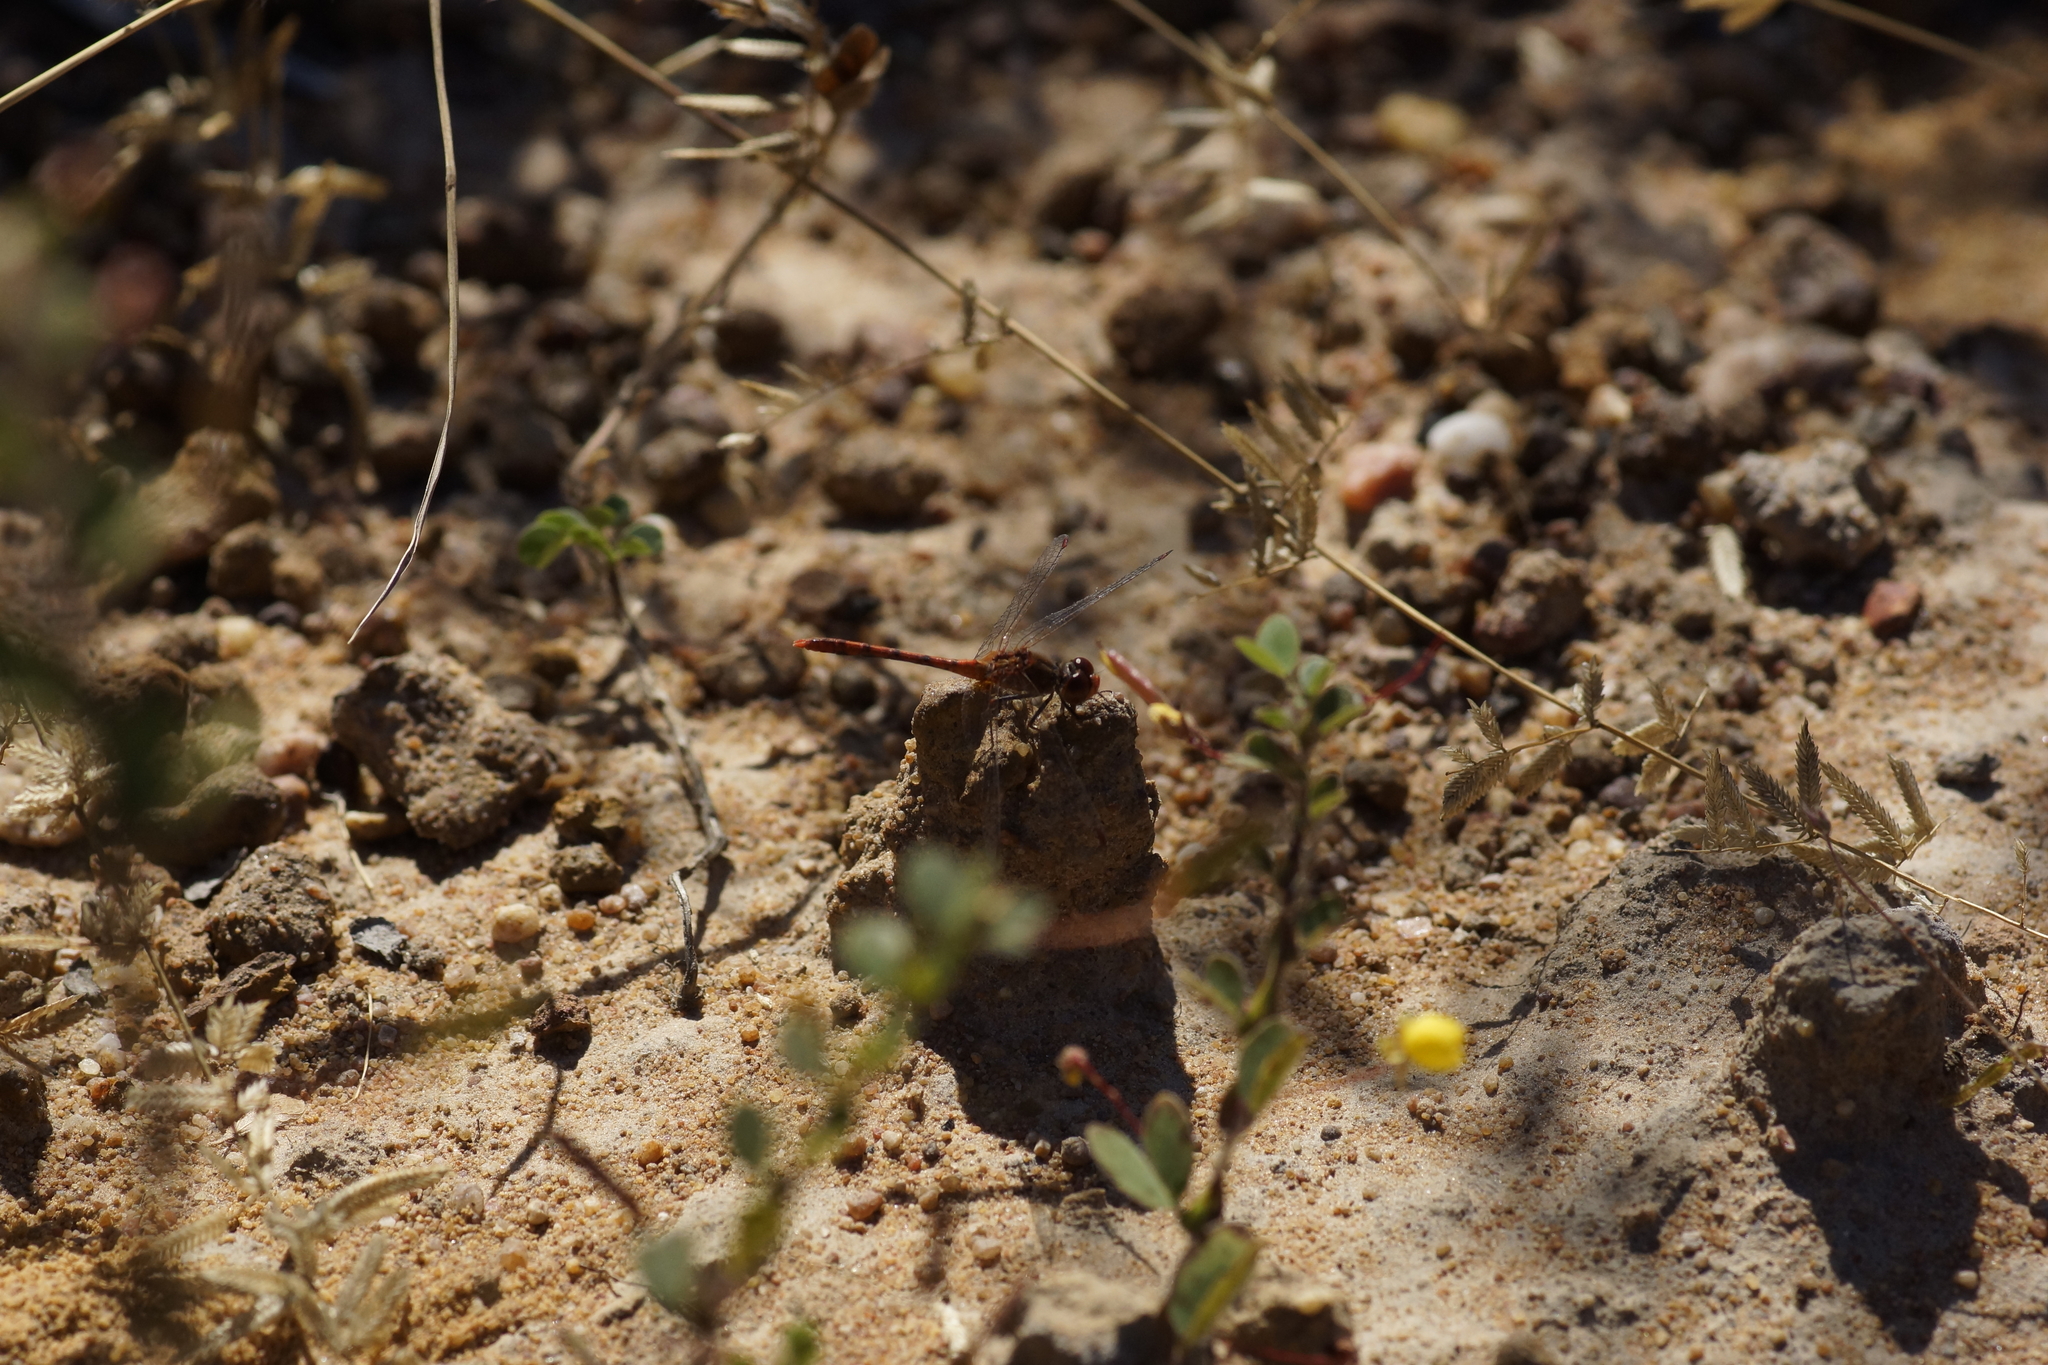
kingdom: Animalia
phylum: Arthropoda
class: Insecta
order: Odonata
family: Libellulidae
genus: Diplacodes
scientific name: Diplacodes bipunctata
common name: Red percher dragonfly
